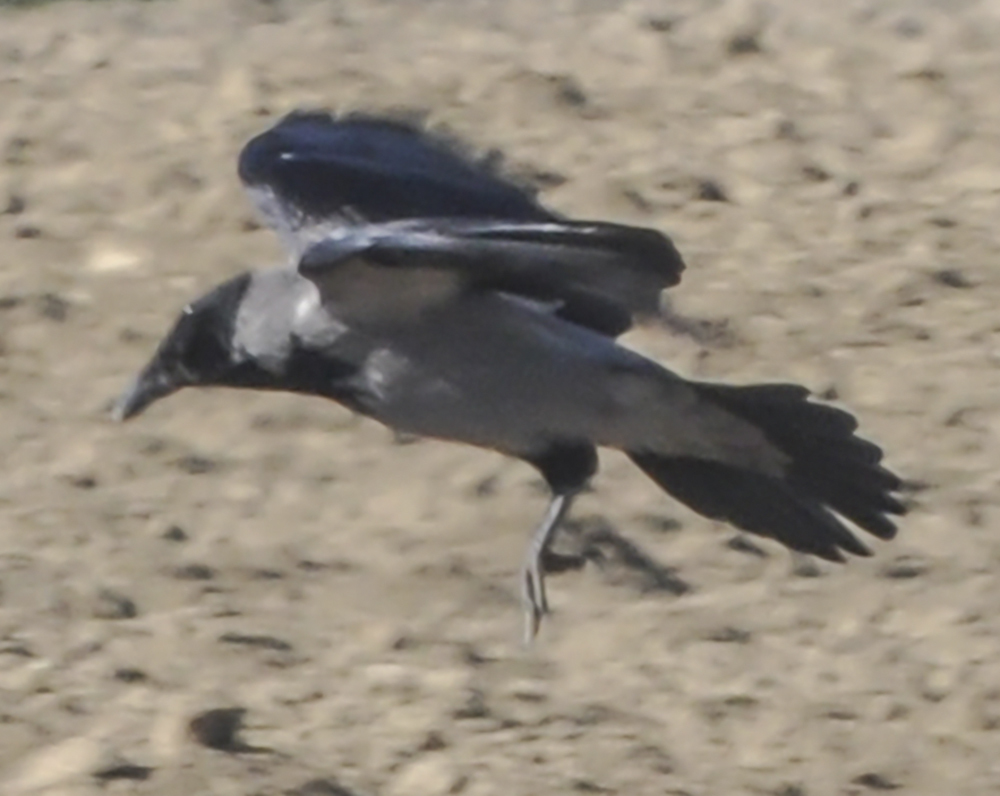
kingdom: Animalia
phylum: Chordata
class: Aves
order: Passeriformes
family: Corvidae
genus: Corvus
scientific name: Corvus cornix
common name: Hooded crow
